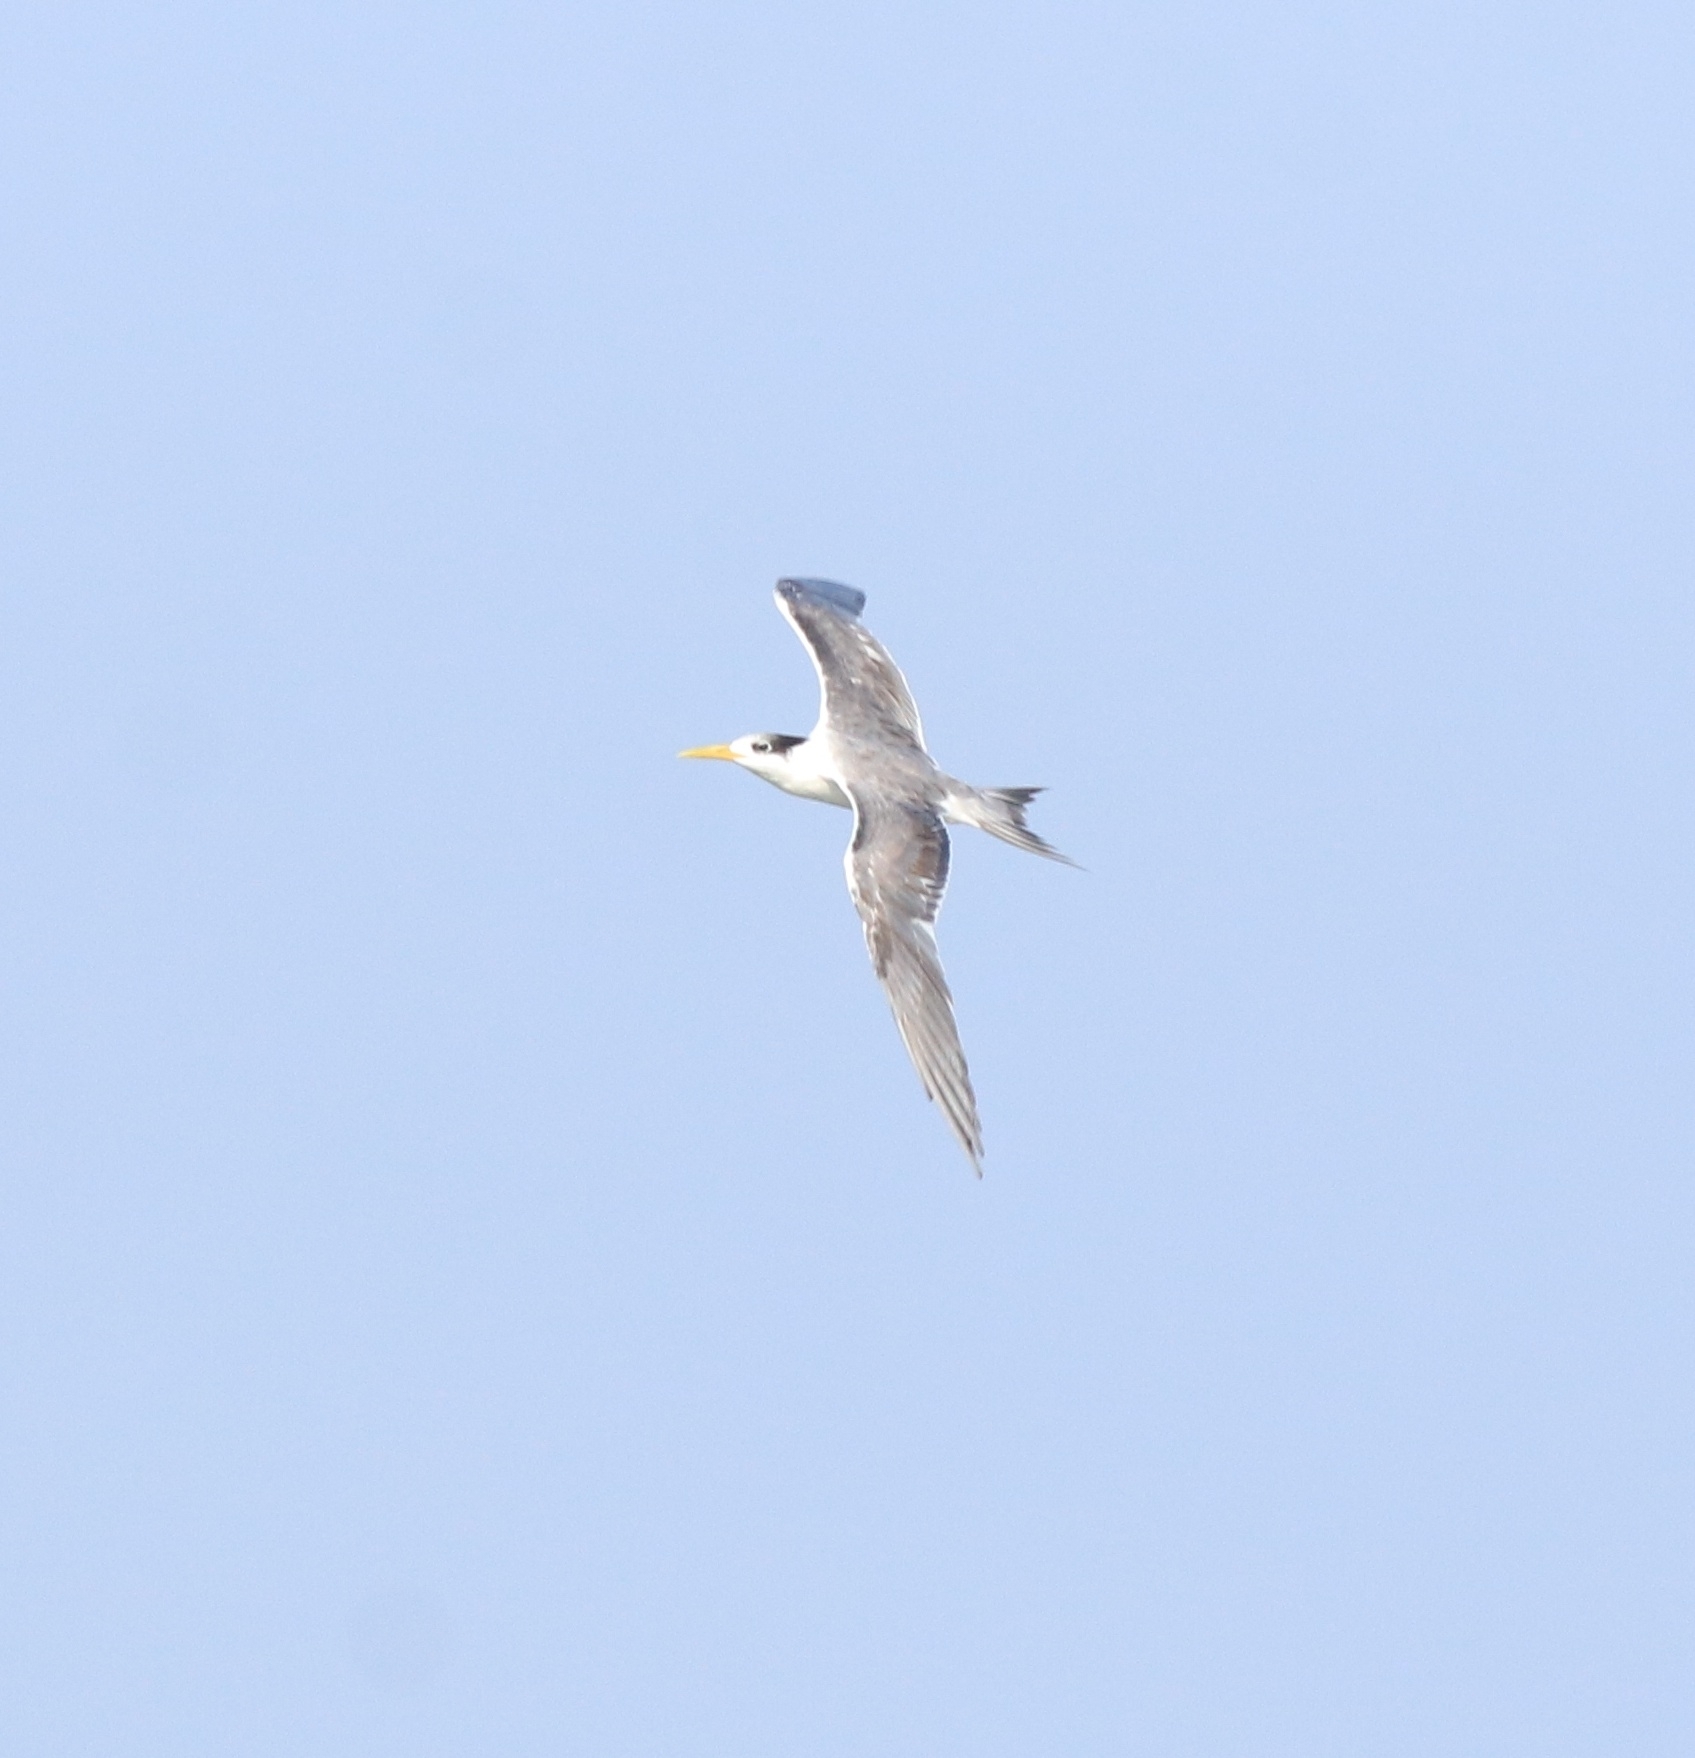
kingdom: Animalia
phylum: Chordata
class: Aves
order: Charadriiformes
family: Laridae
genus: Thalasseus
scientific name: Thalasseus bergii
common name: Greater crested tern
